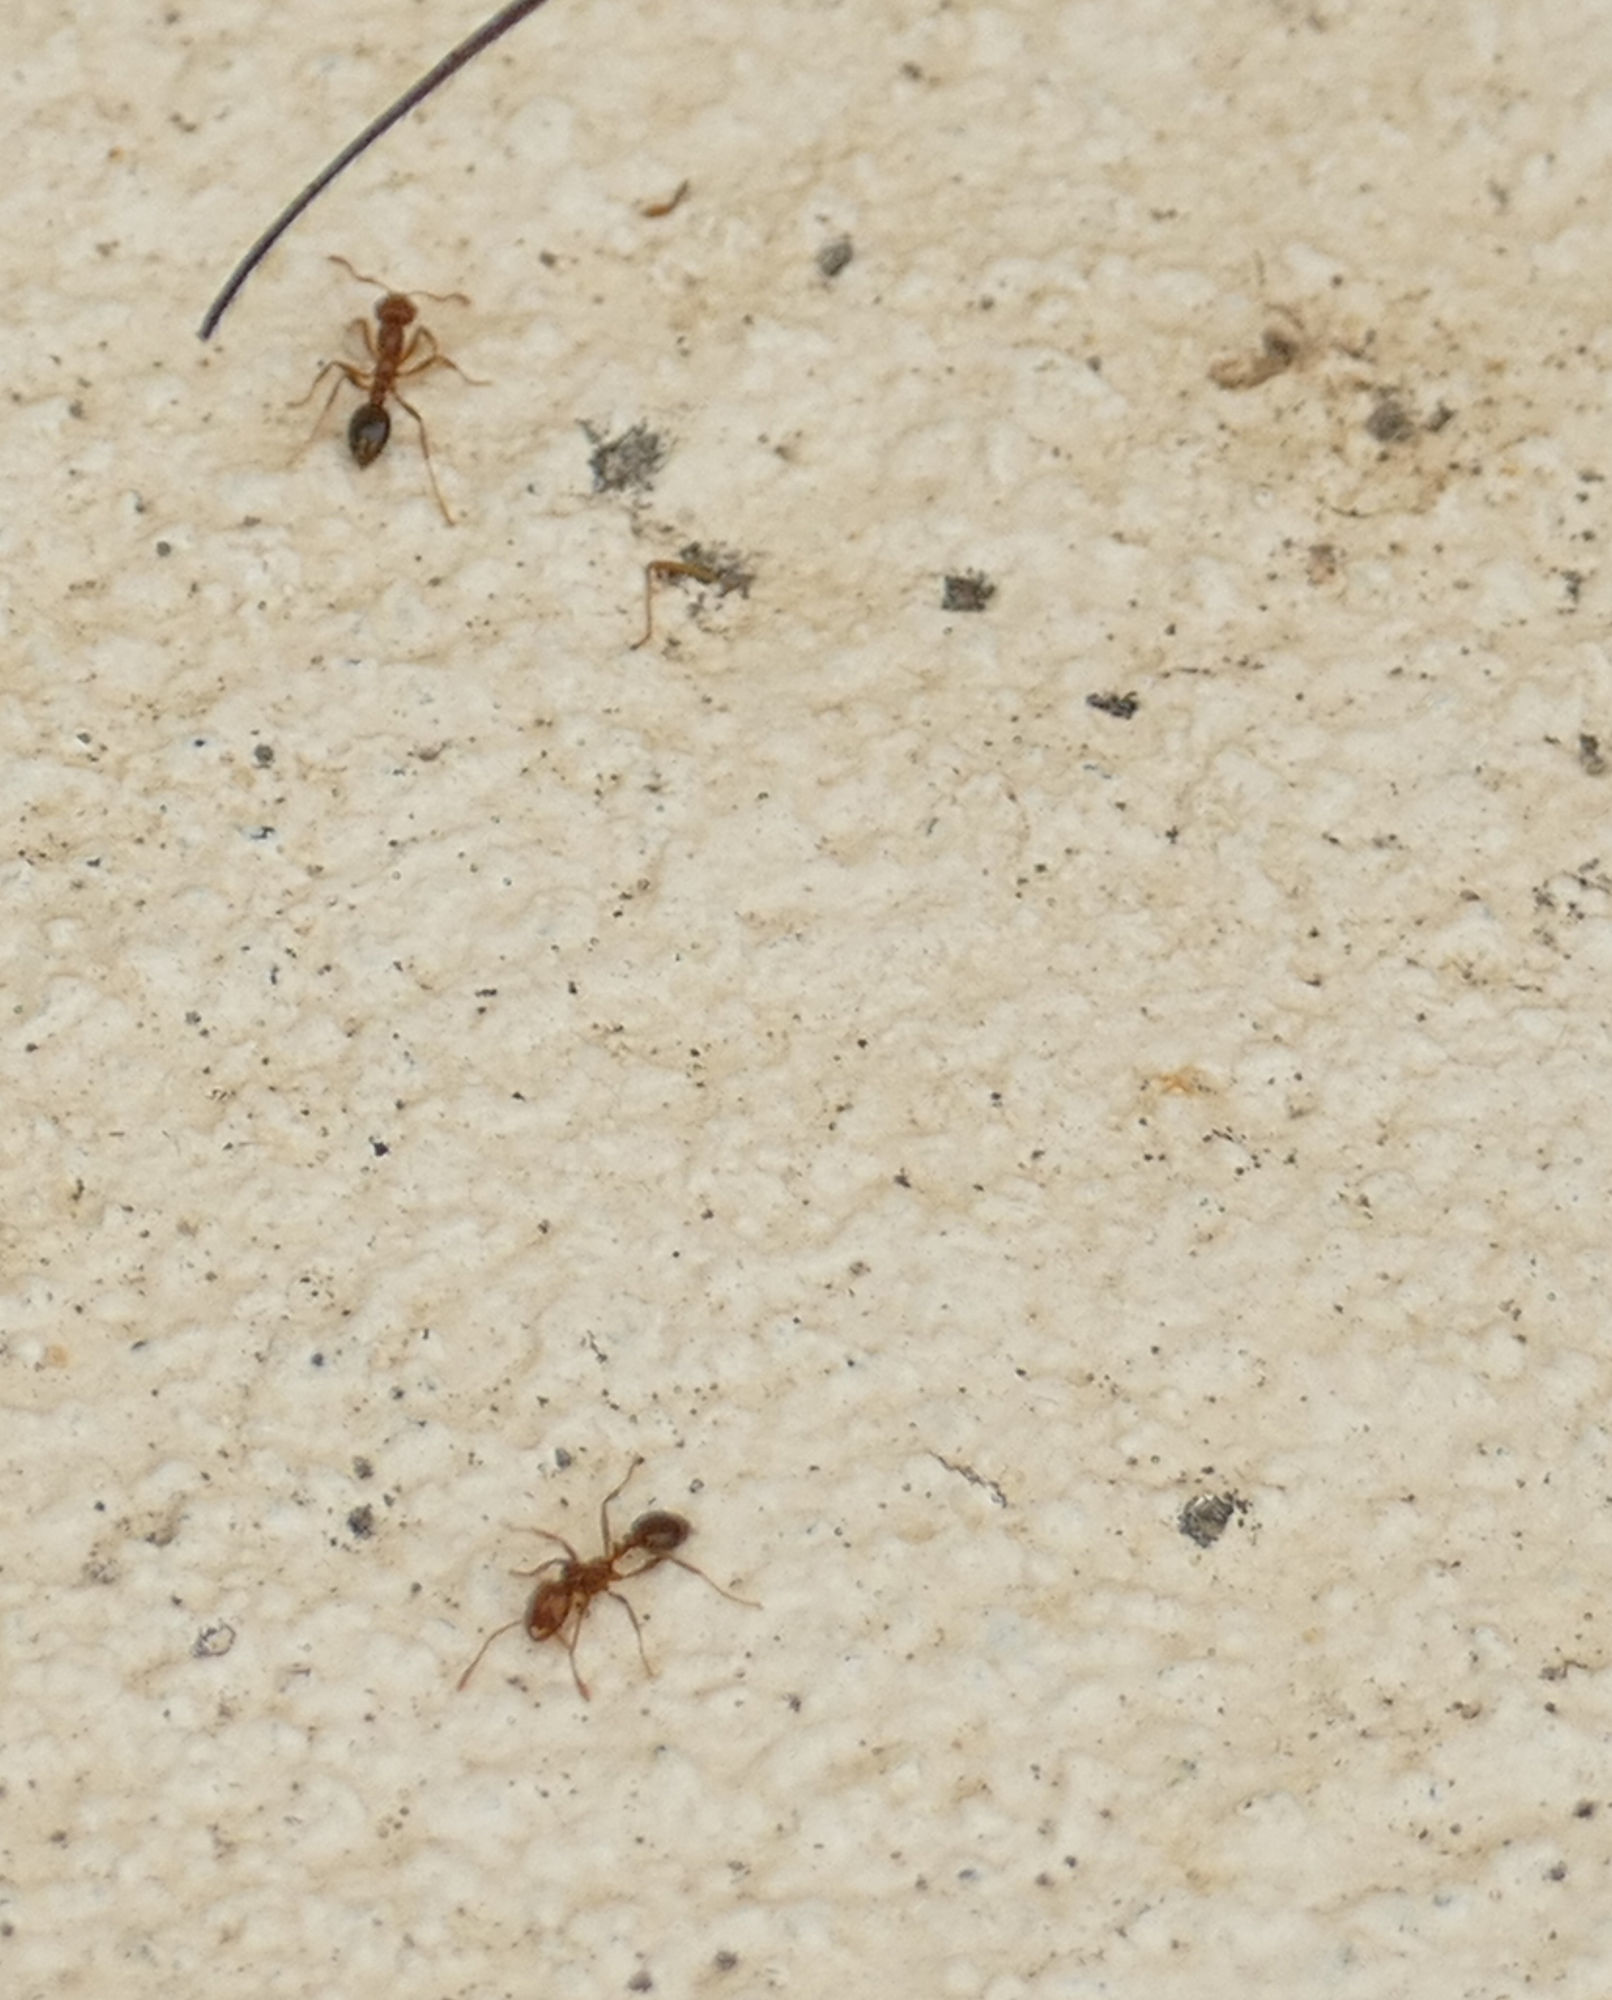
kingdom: Animalia
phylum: Arthropoda
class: Insecta
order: Hymenoptera
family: Formicidae
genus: Solenopsis
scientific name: Solenopsis invicta
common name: Red imported fire ant
